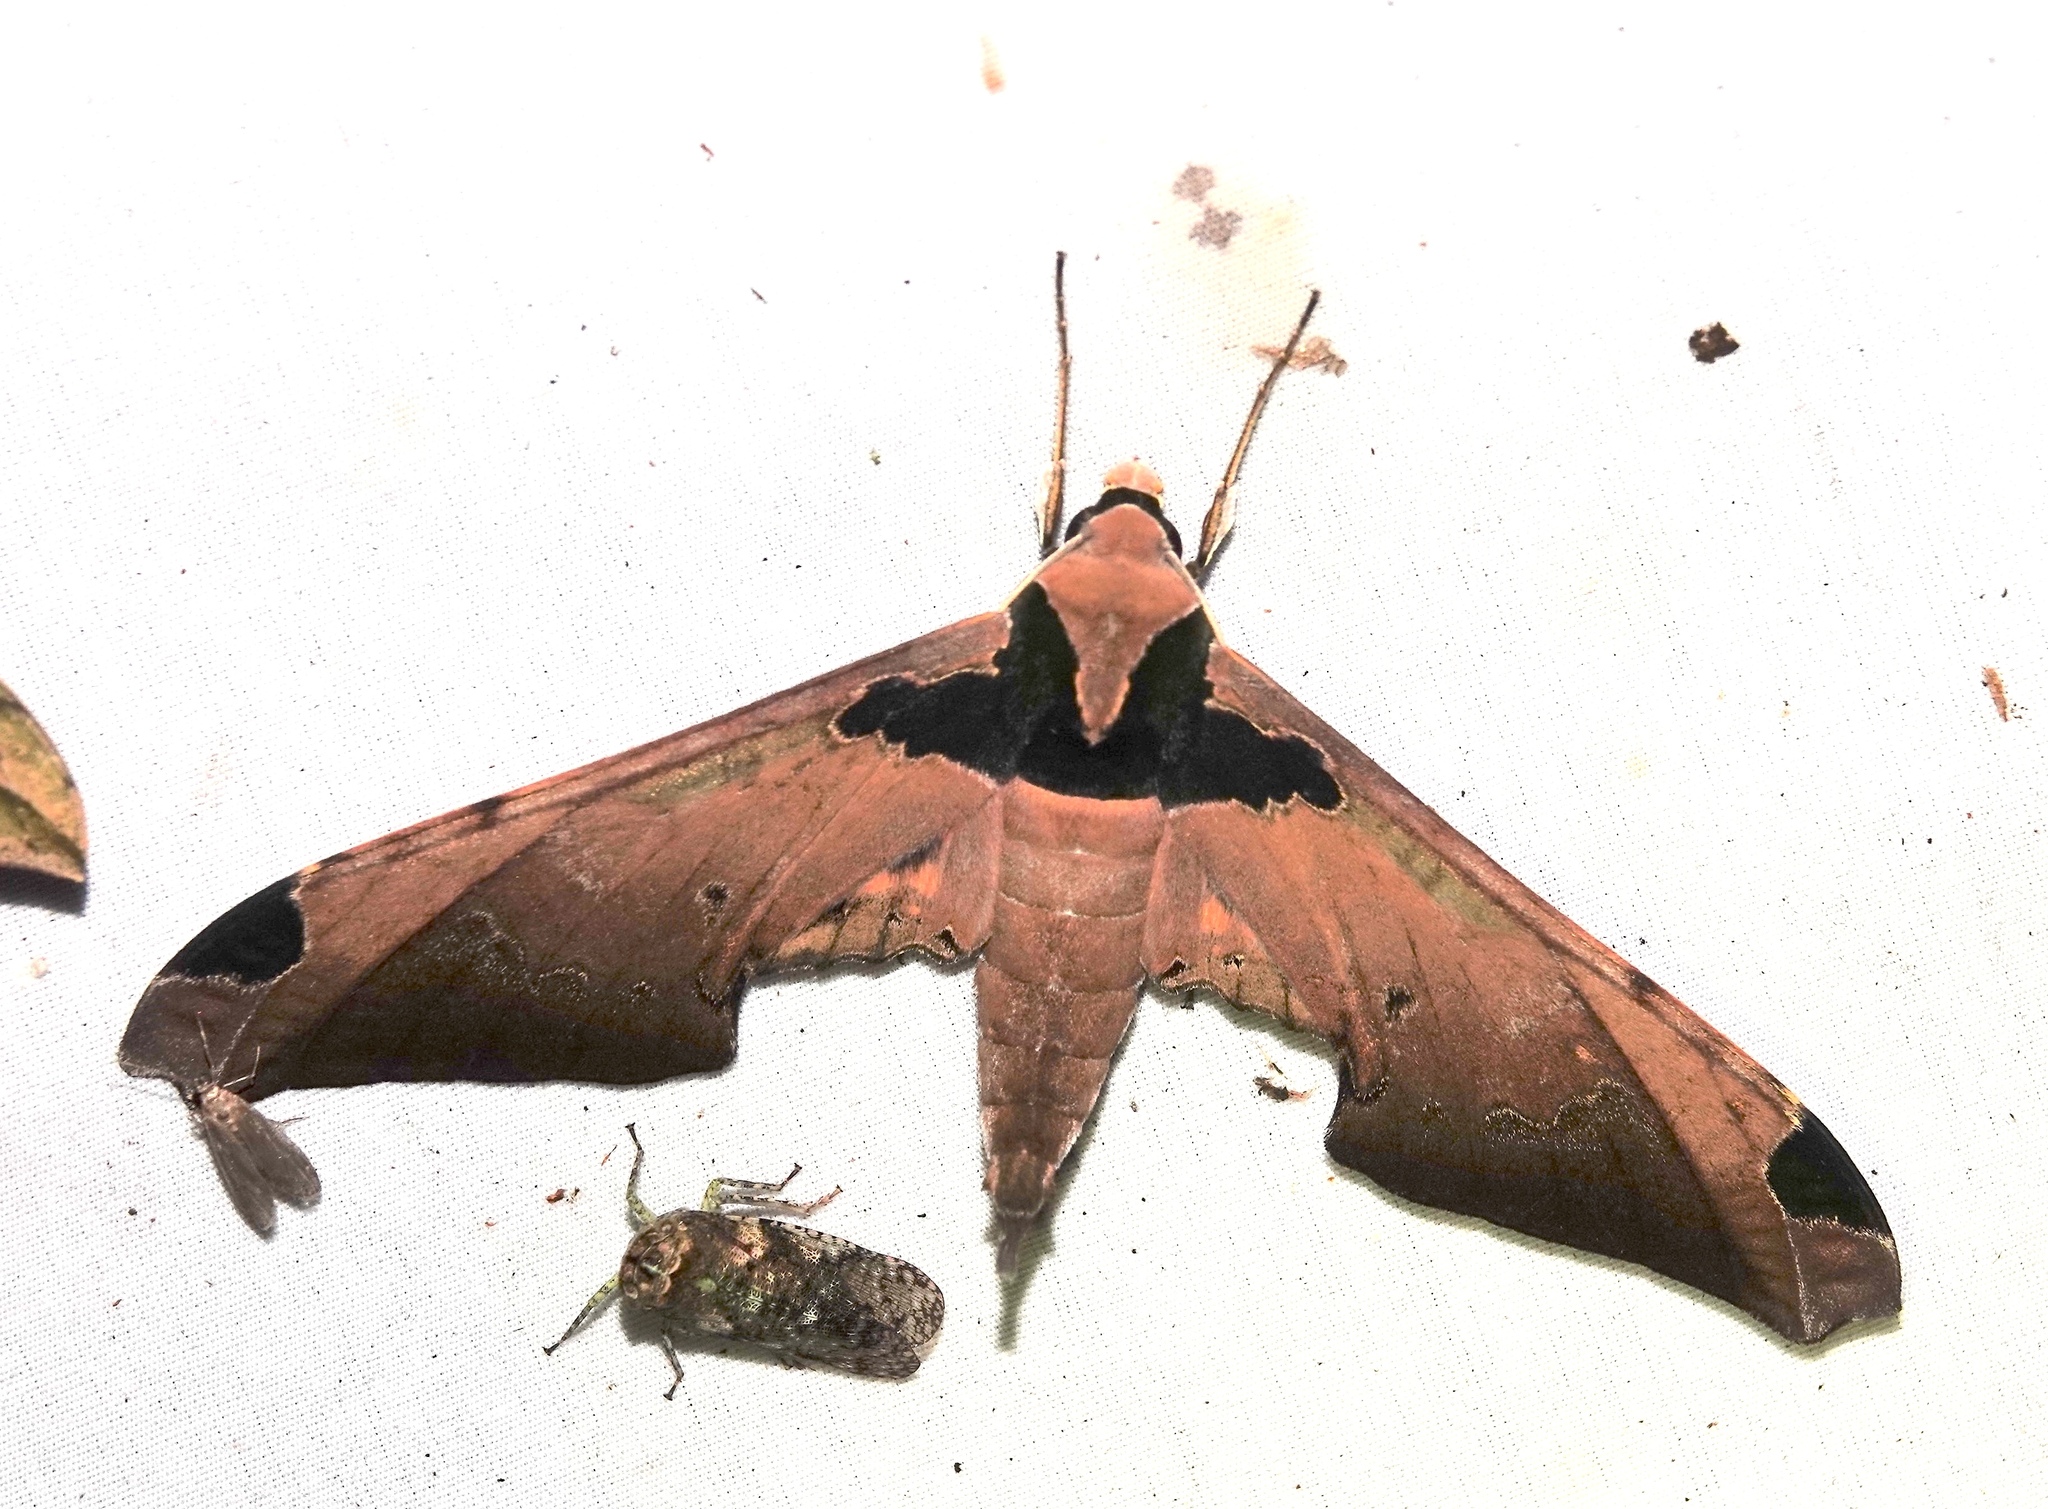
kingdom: Animalia
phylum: Arthropoda
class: Insecta
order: Lepidoptera
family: Sphingidae
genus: Adhemarius
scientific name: Adhemarius ypsilon
